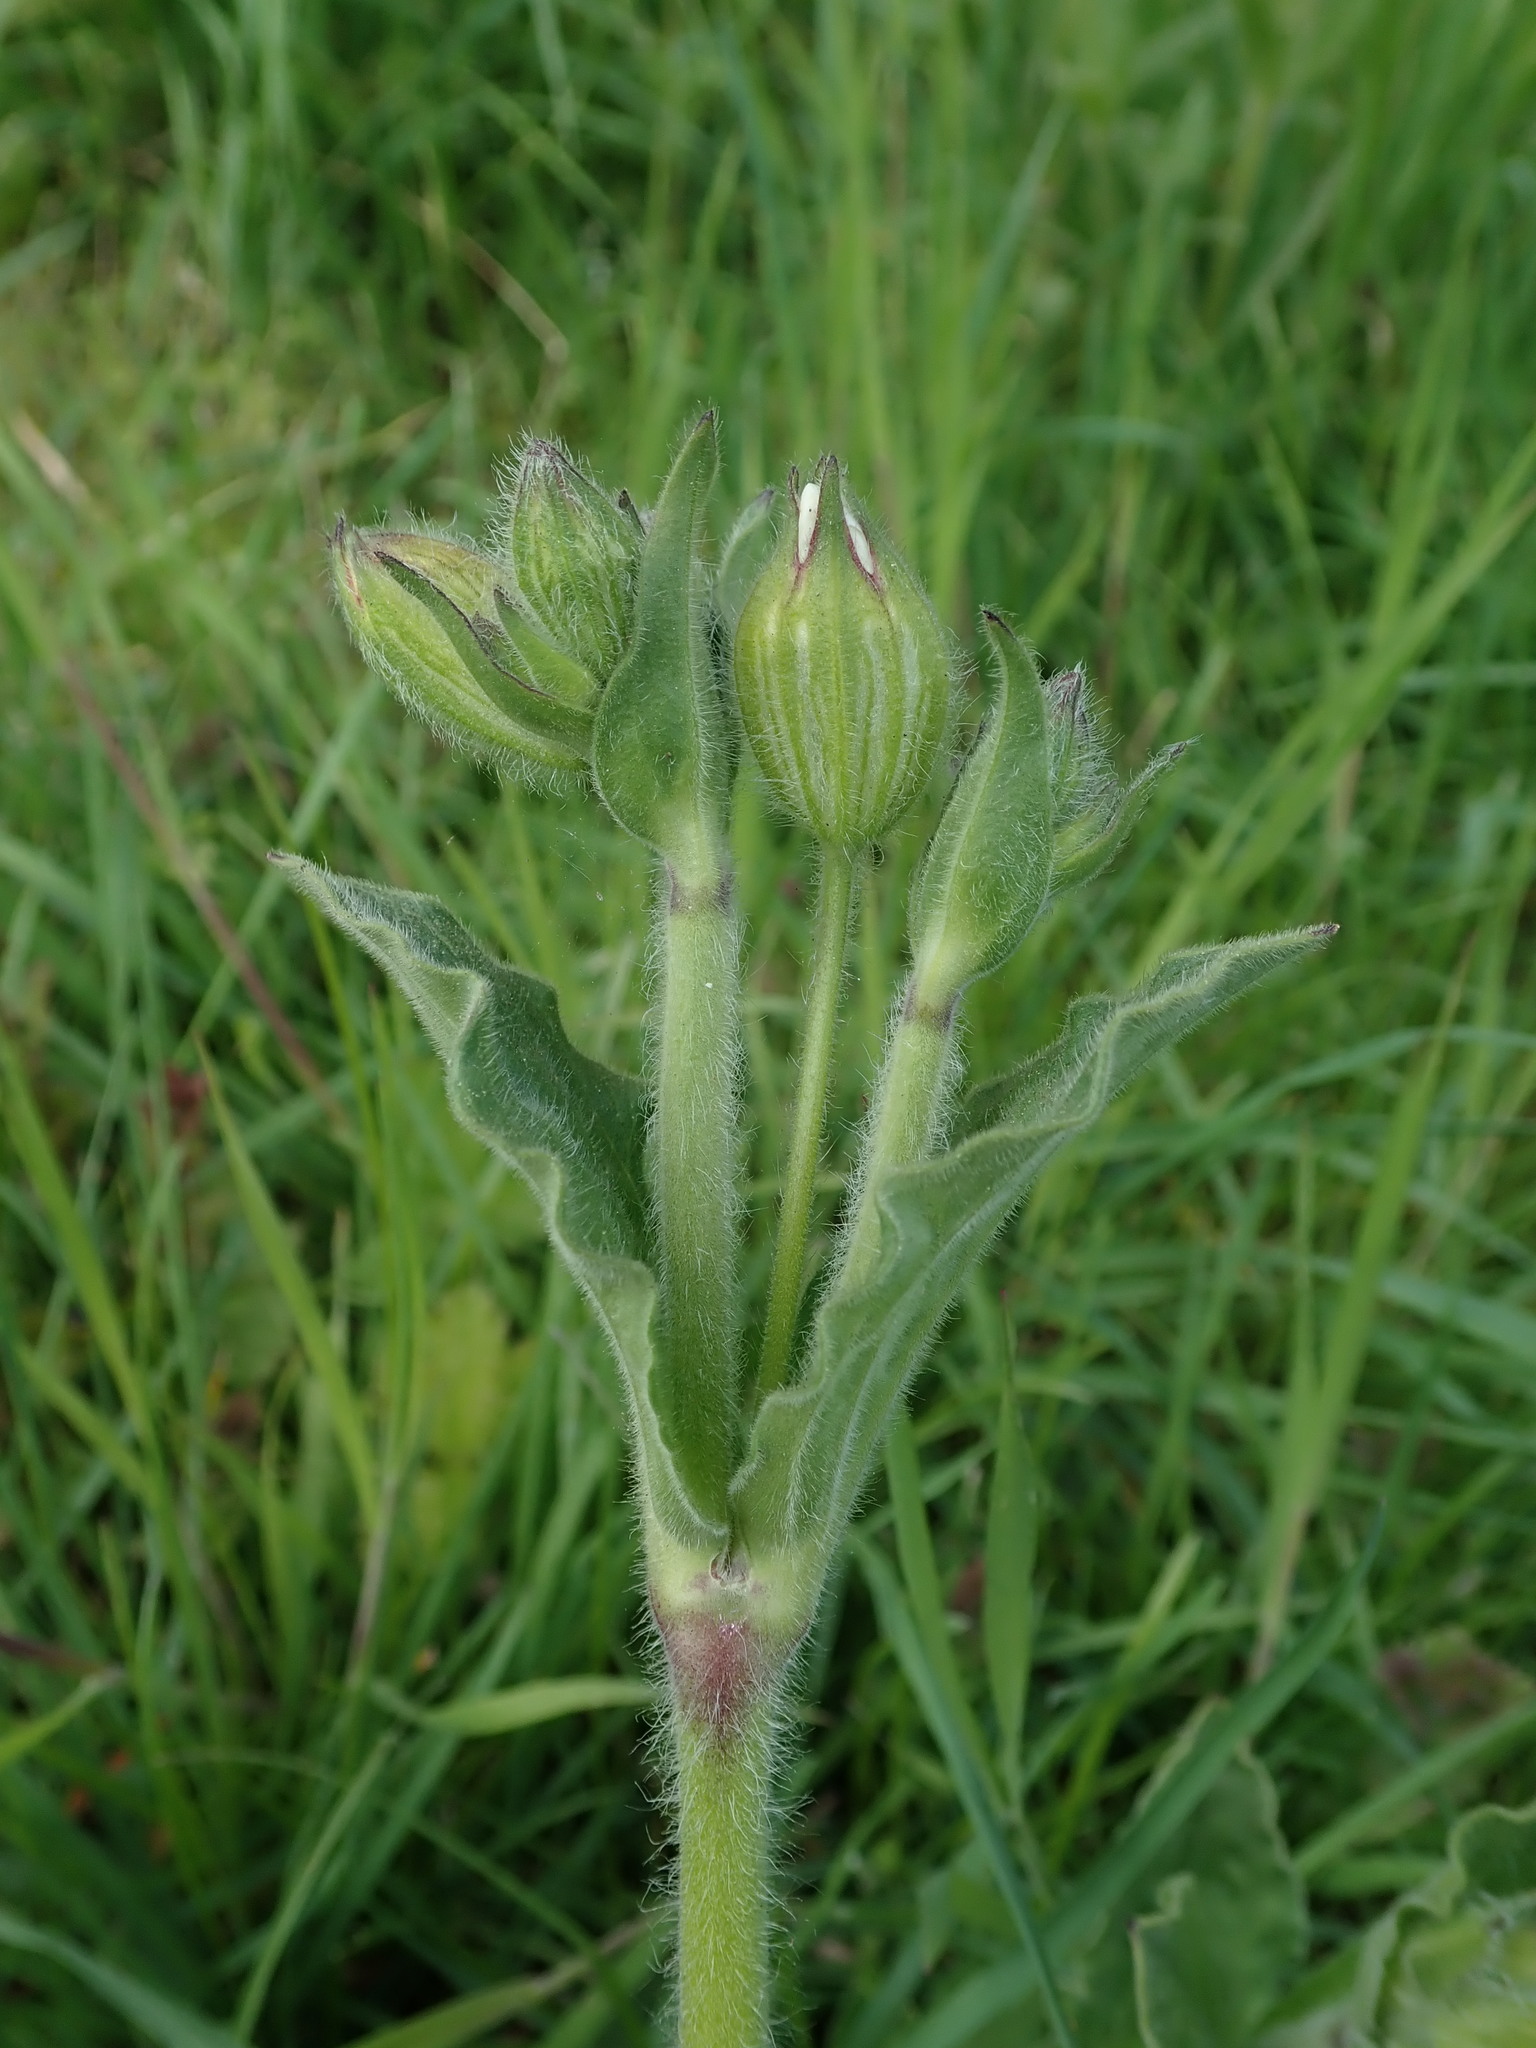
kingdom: Plantae
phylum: Tracheophyta
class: Magnoliopsida
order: Caryophyllales
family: Caryophyllaceae
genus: Silene
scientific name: Silene latifolia
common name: White campion
